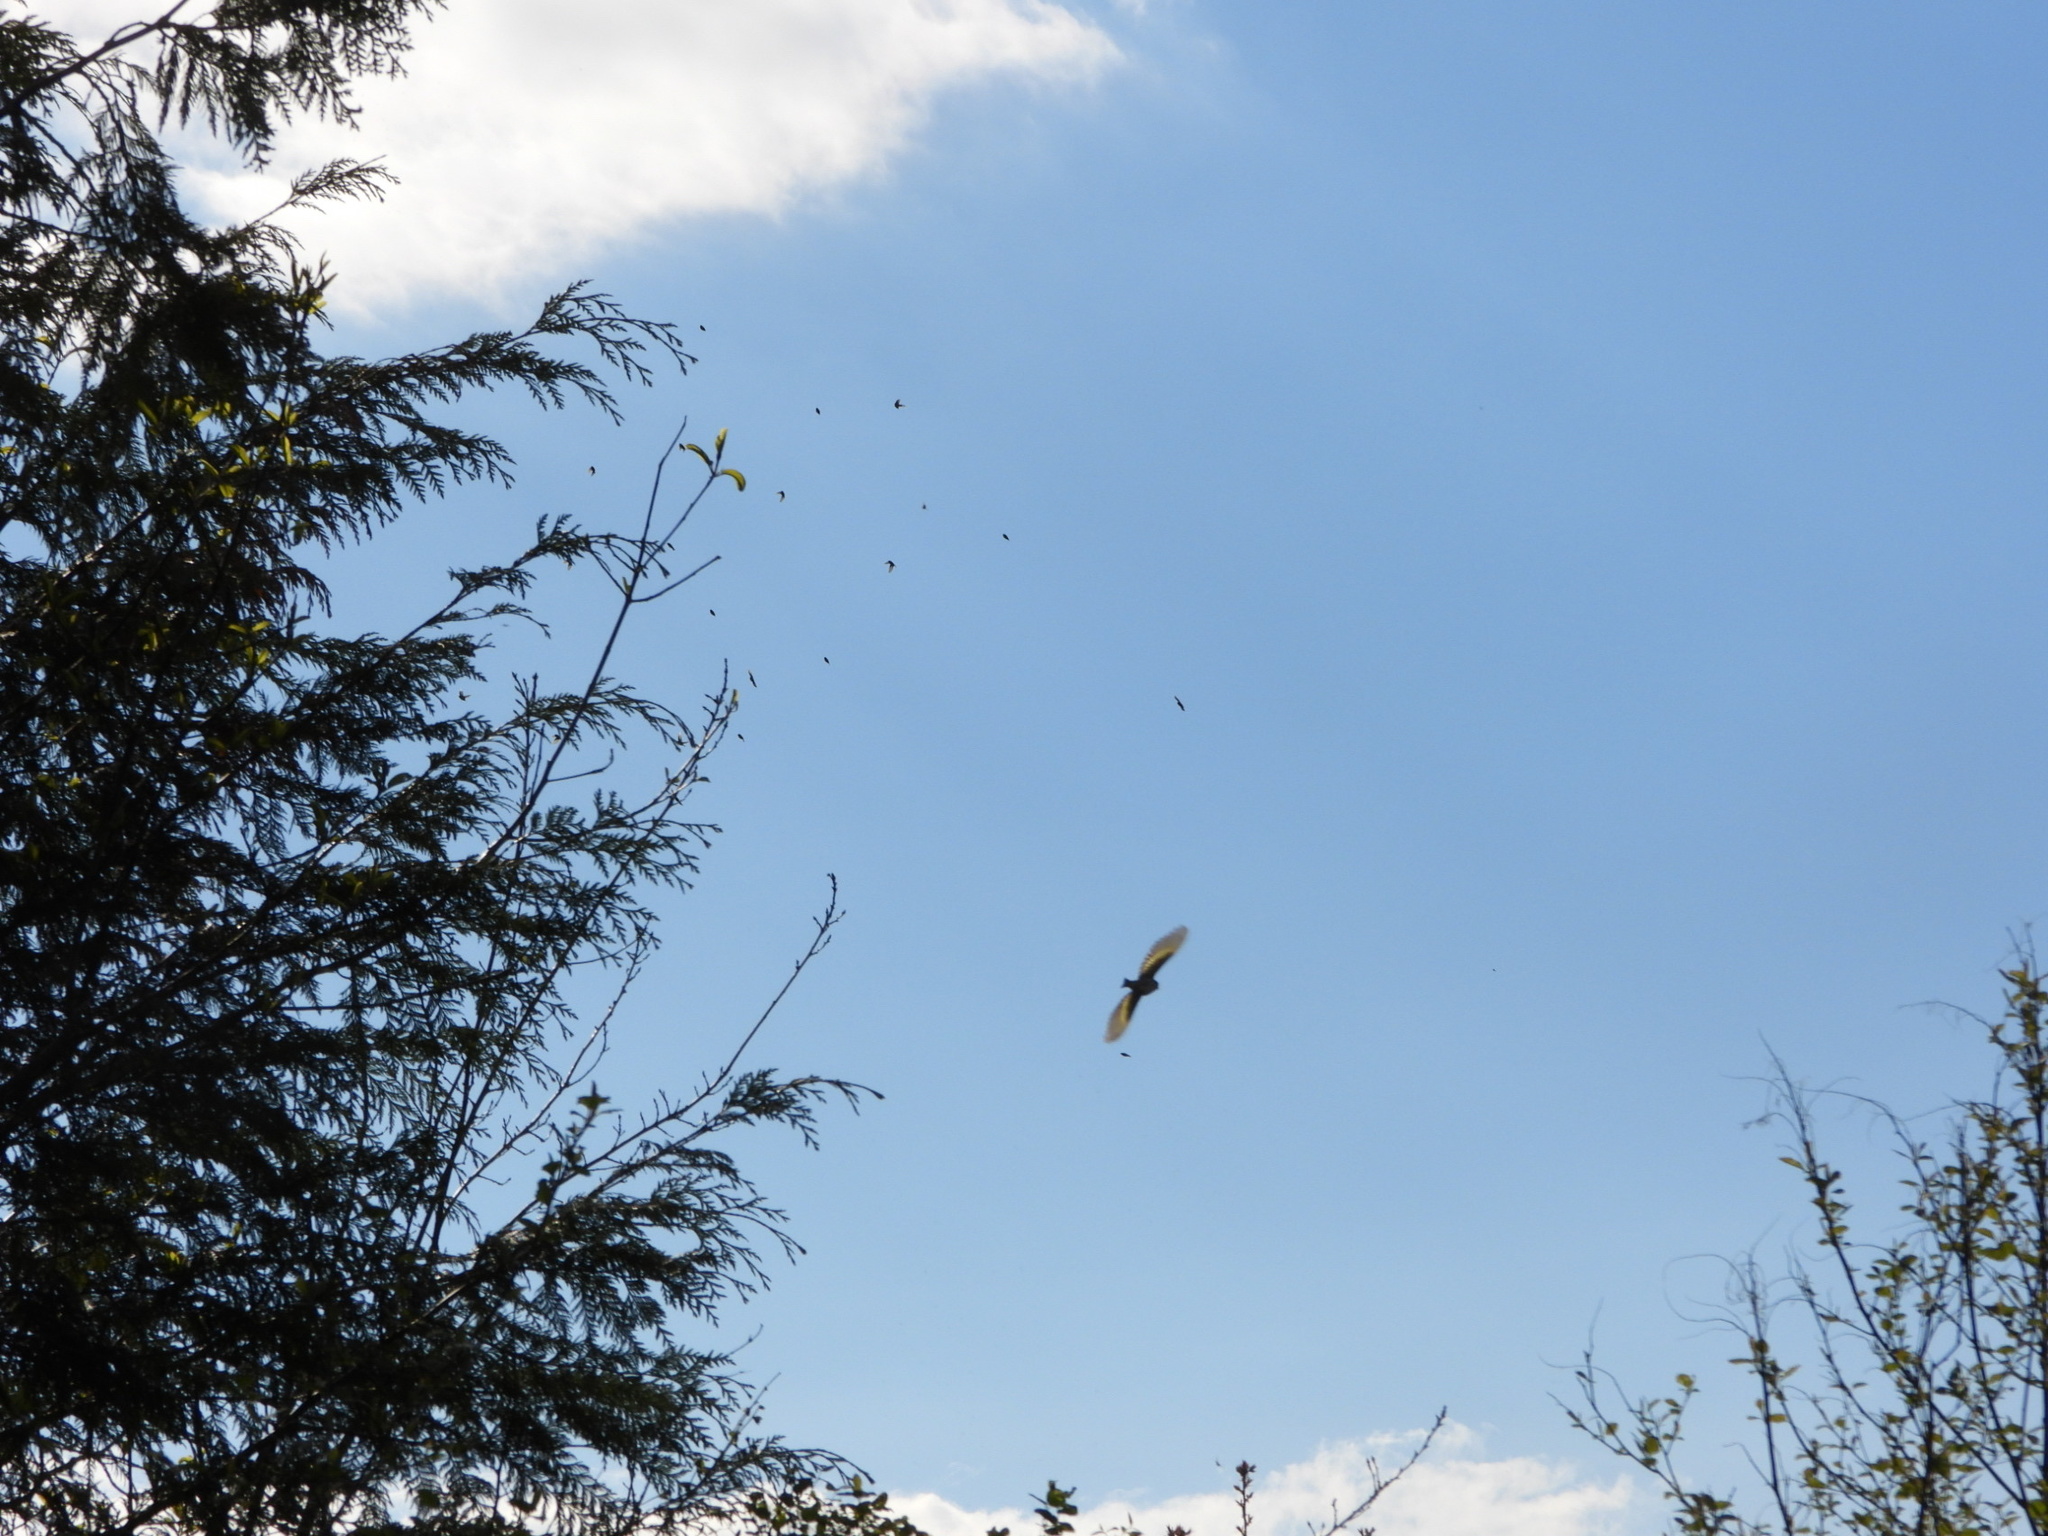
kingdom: Animalia
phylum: Chordata
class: Aves
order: Passeriformes
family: Fringillidae
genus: Spinus
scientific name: Spinus pinus
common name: Pine siskin
